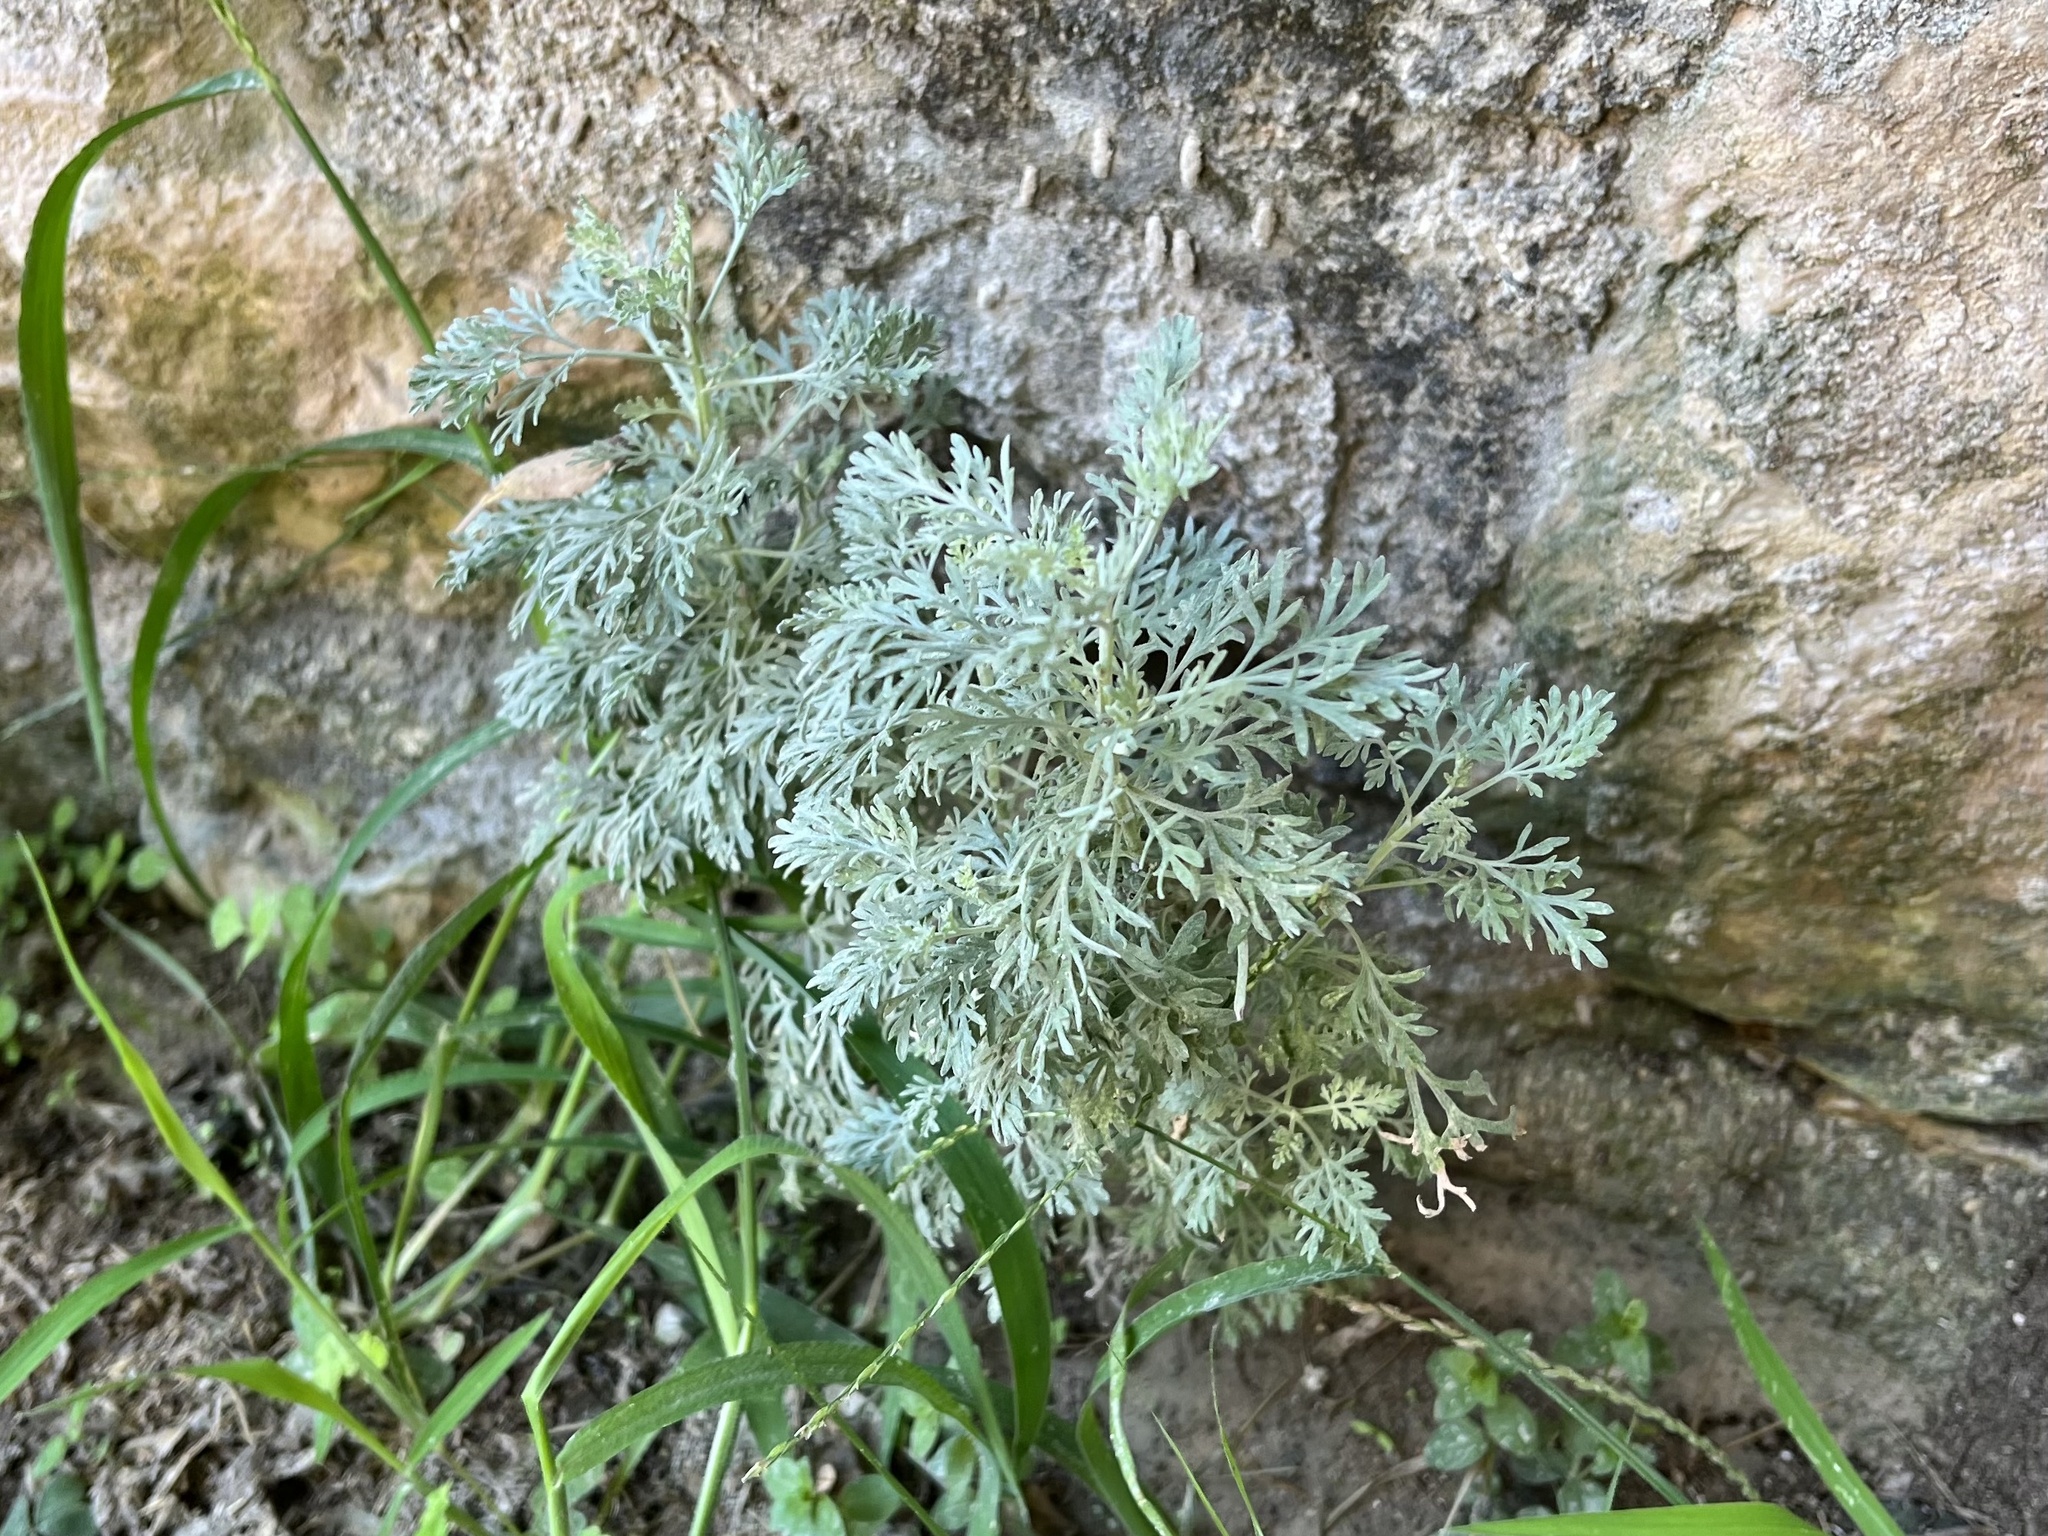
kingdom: Plantae
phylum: Tracheophyta
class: Magnoliopsida
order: Asterales
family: Asteraceae
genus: Artemisia
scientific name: Artemisia arborescens
